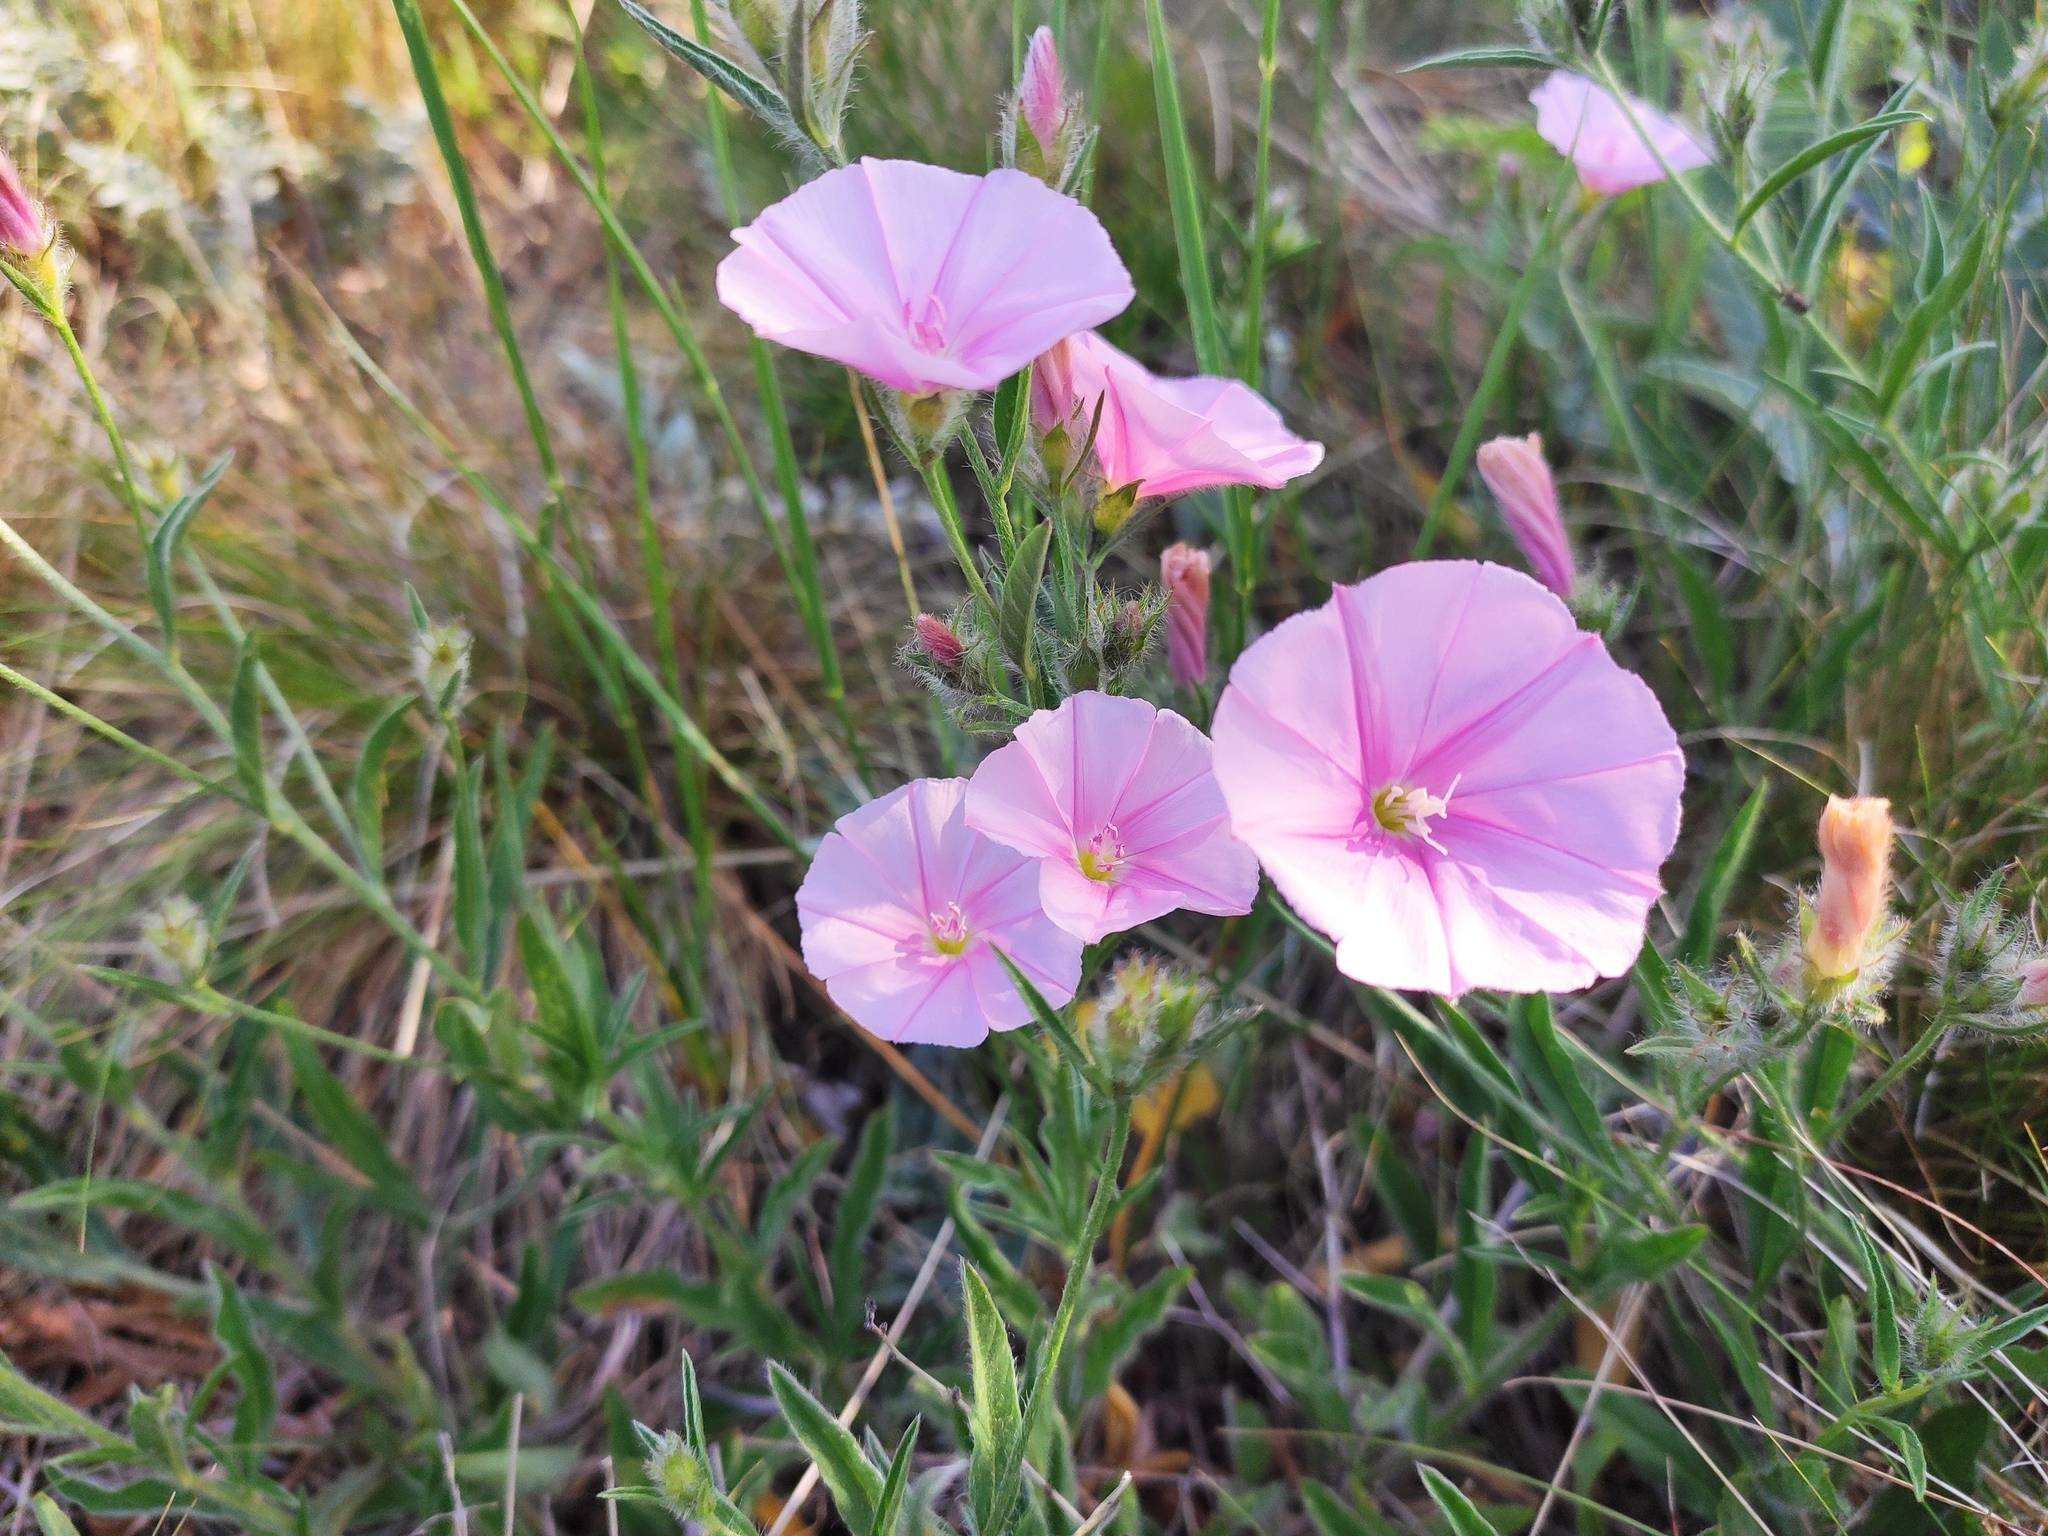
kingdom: Plantae
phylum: Tracheophyta
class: Magnoliopsida
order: Solanales
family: Convolvulaceae
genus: Convolvulus
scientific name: Convolvulus cantabrica
